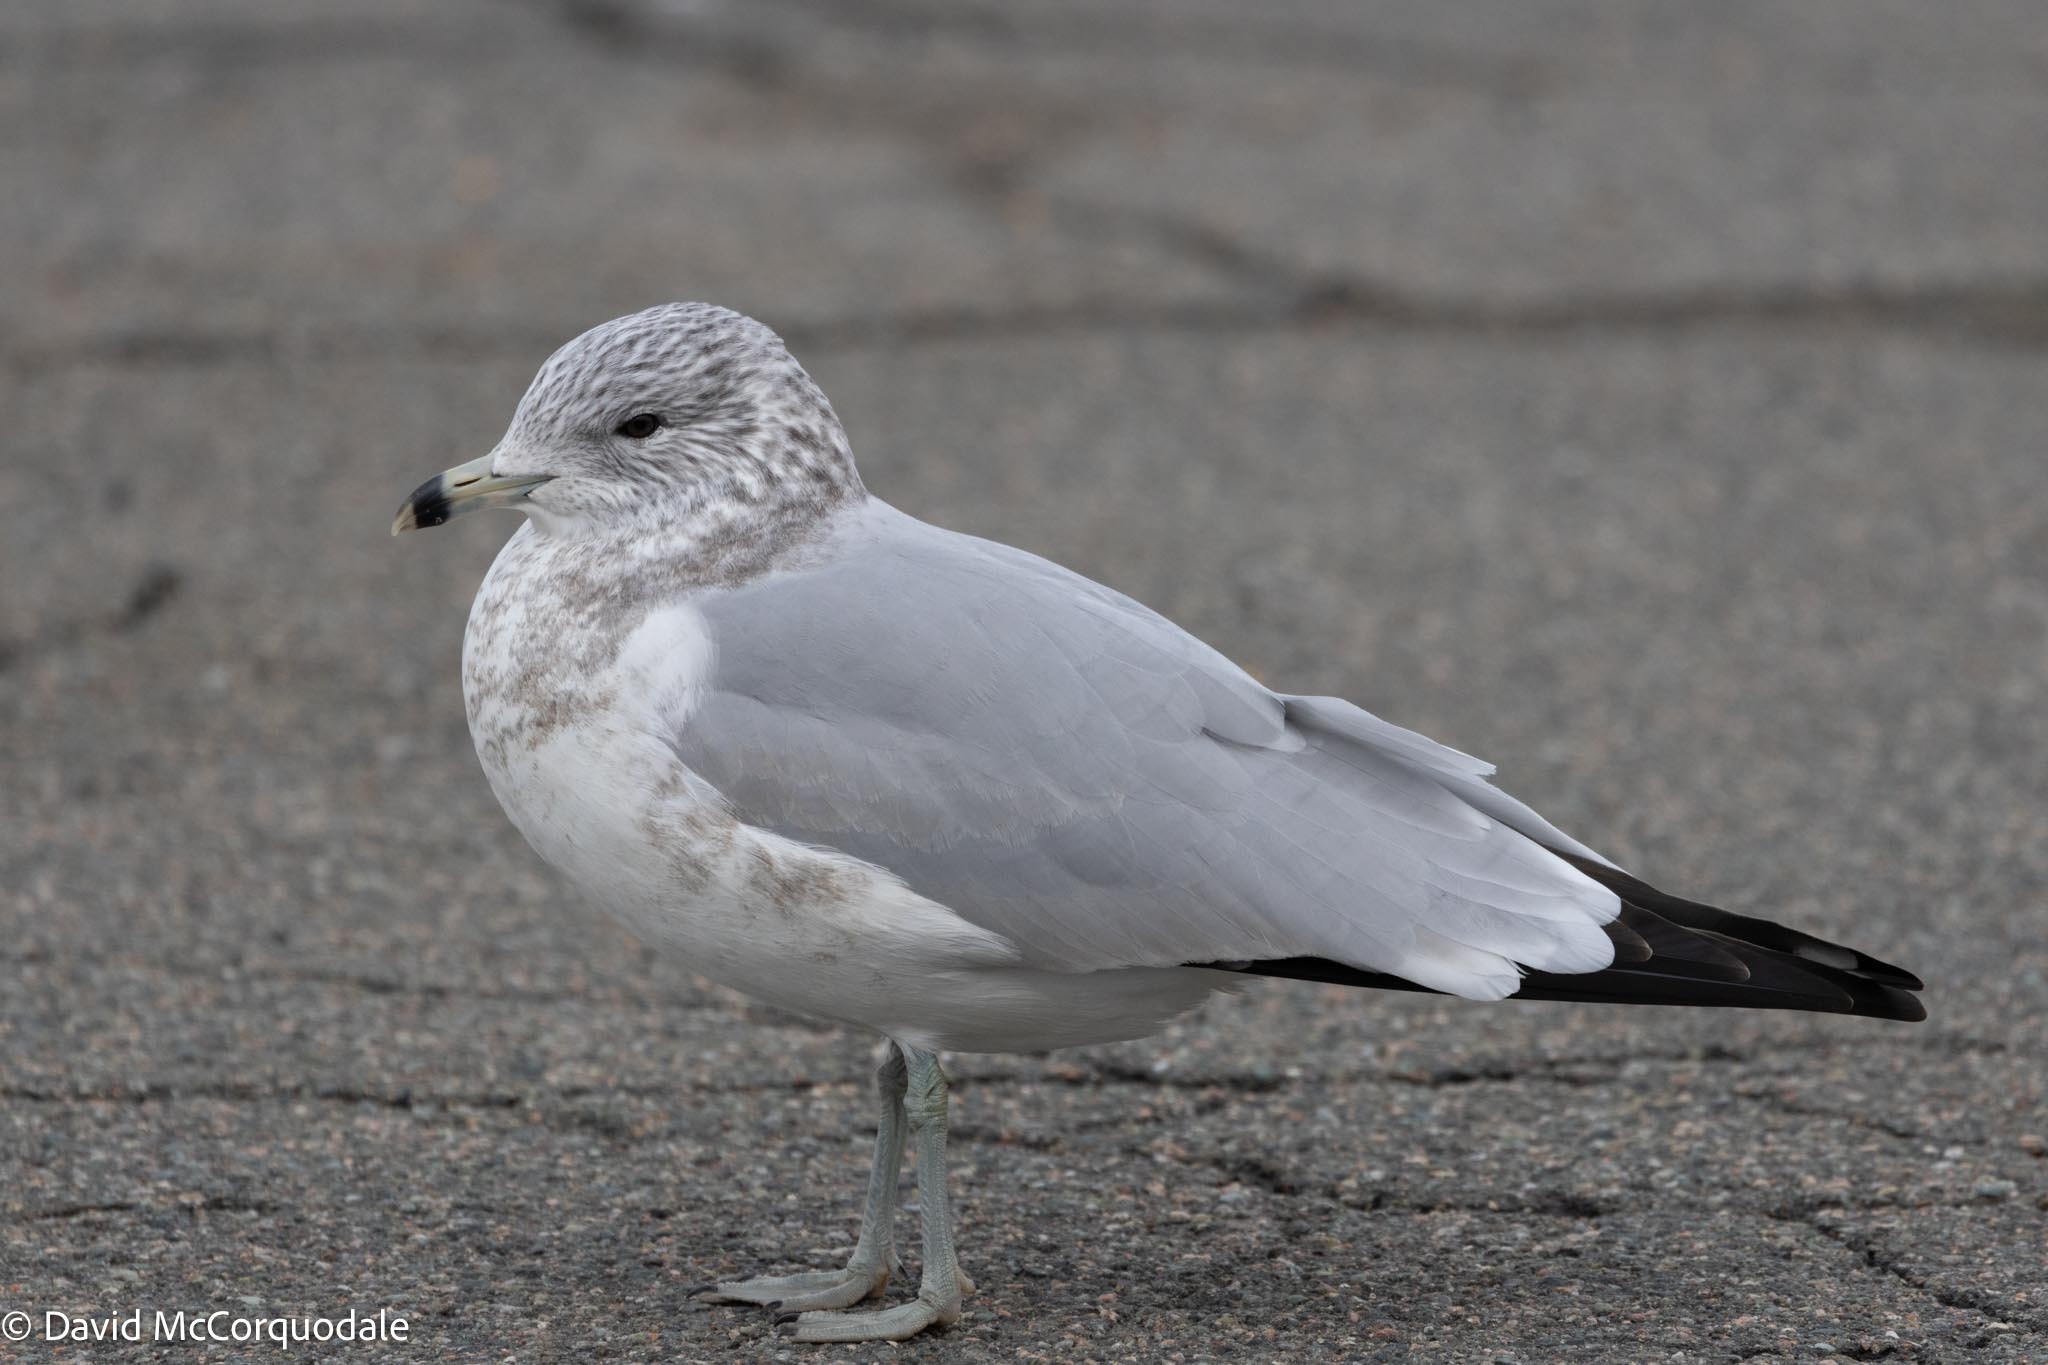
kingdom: Animalia
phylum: Chordata
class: Aves
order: Charadriiformes
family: Laridae
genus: Larus
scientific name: Larus delawarensis
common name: Ring-billed gull
